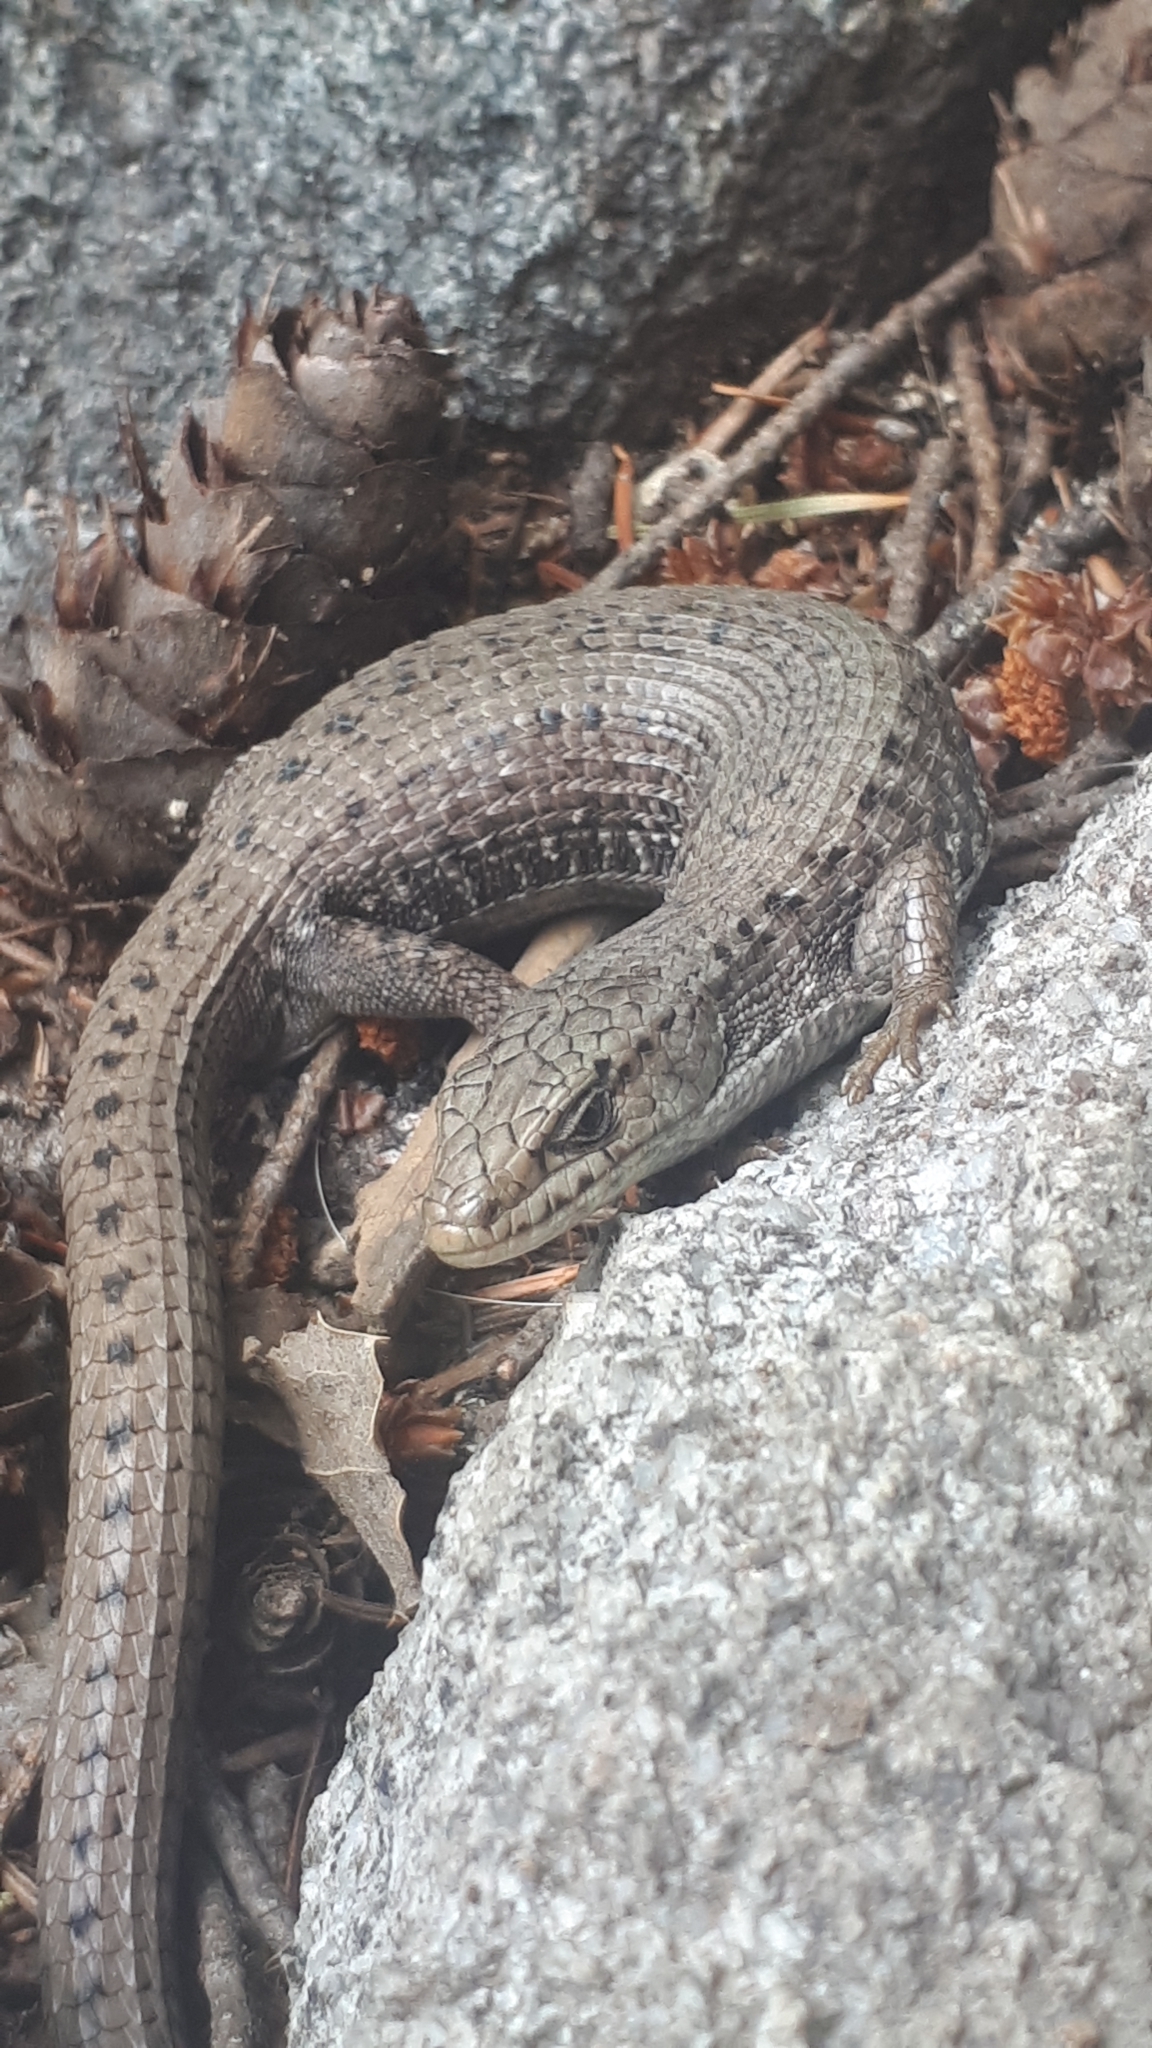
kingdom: Animalia
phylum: Chordata
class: Squamata
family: Anguidae
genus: Elgaria
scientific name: Elgaria coerulea
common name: Northern alligator lizard
